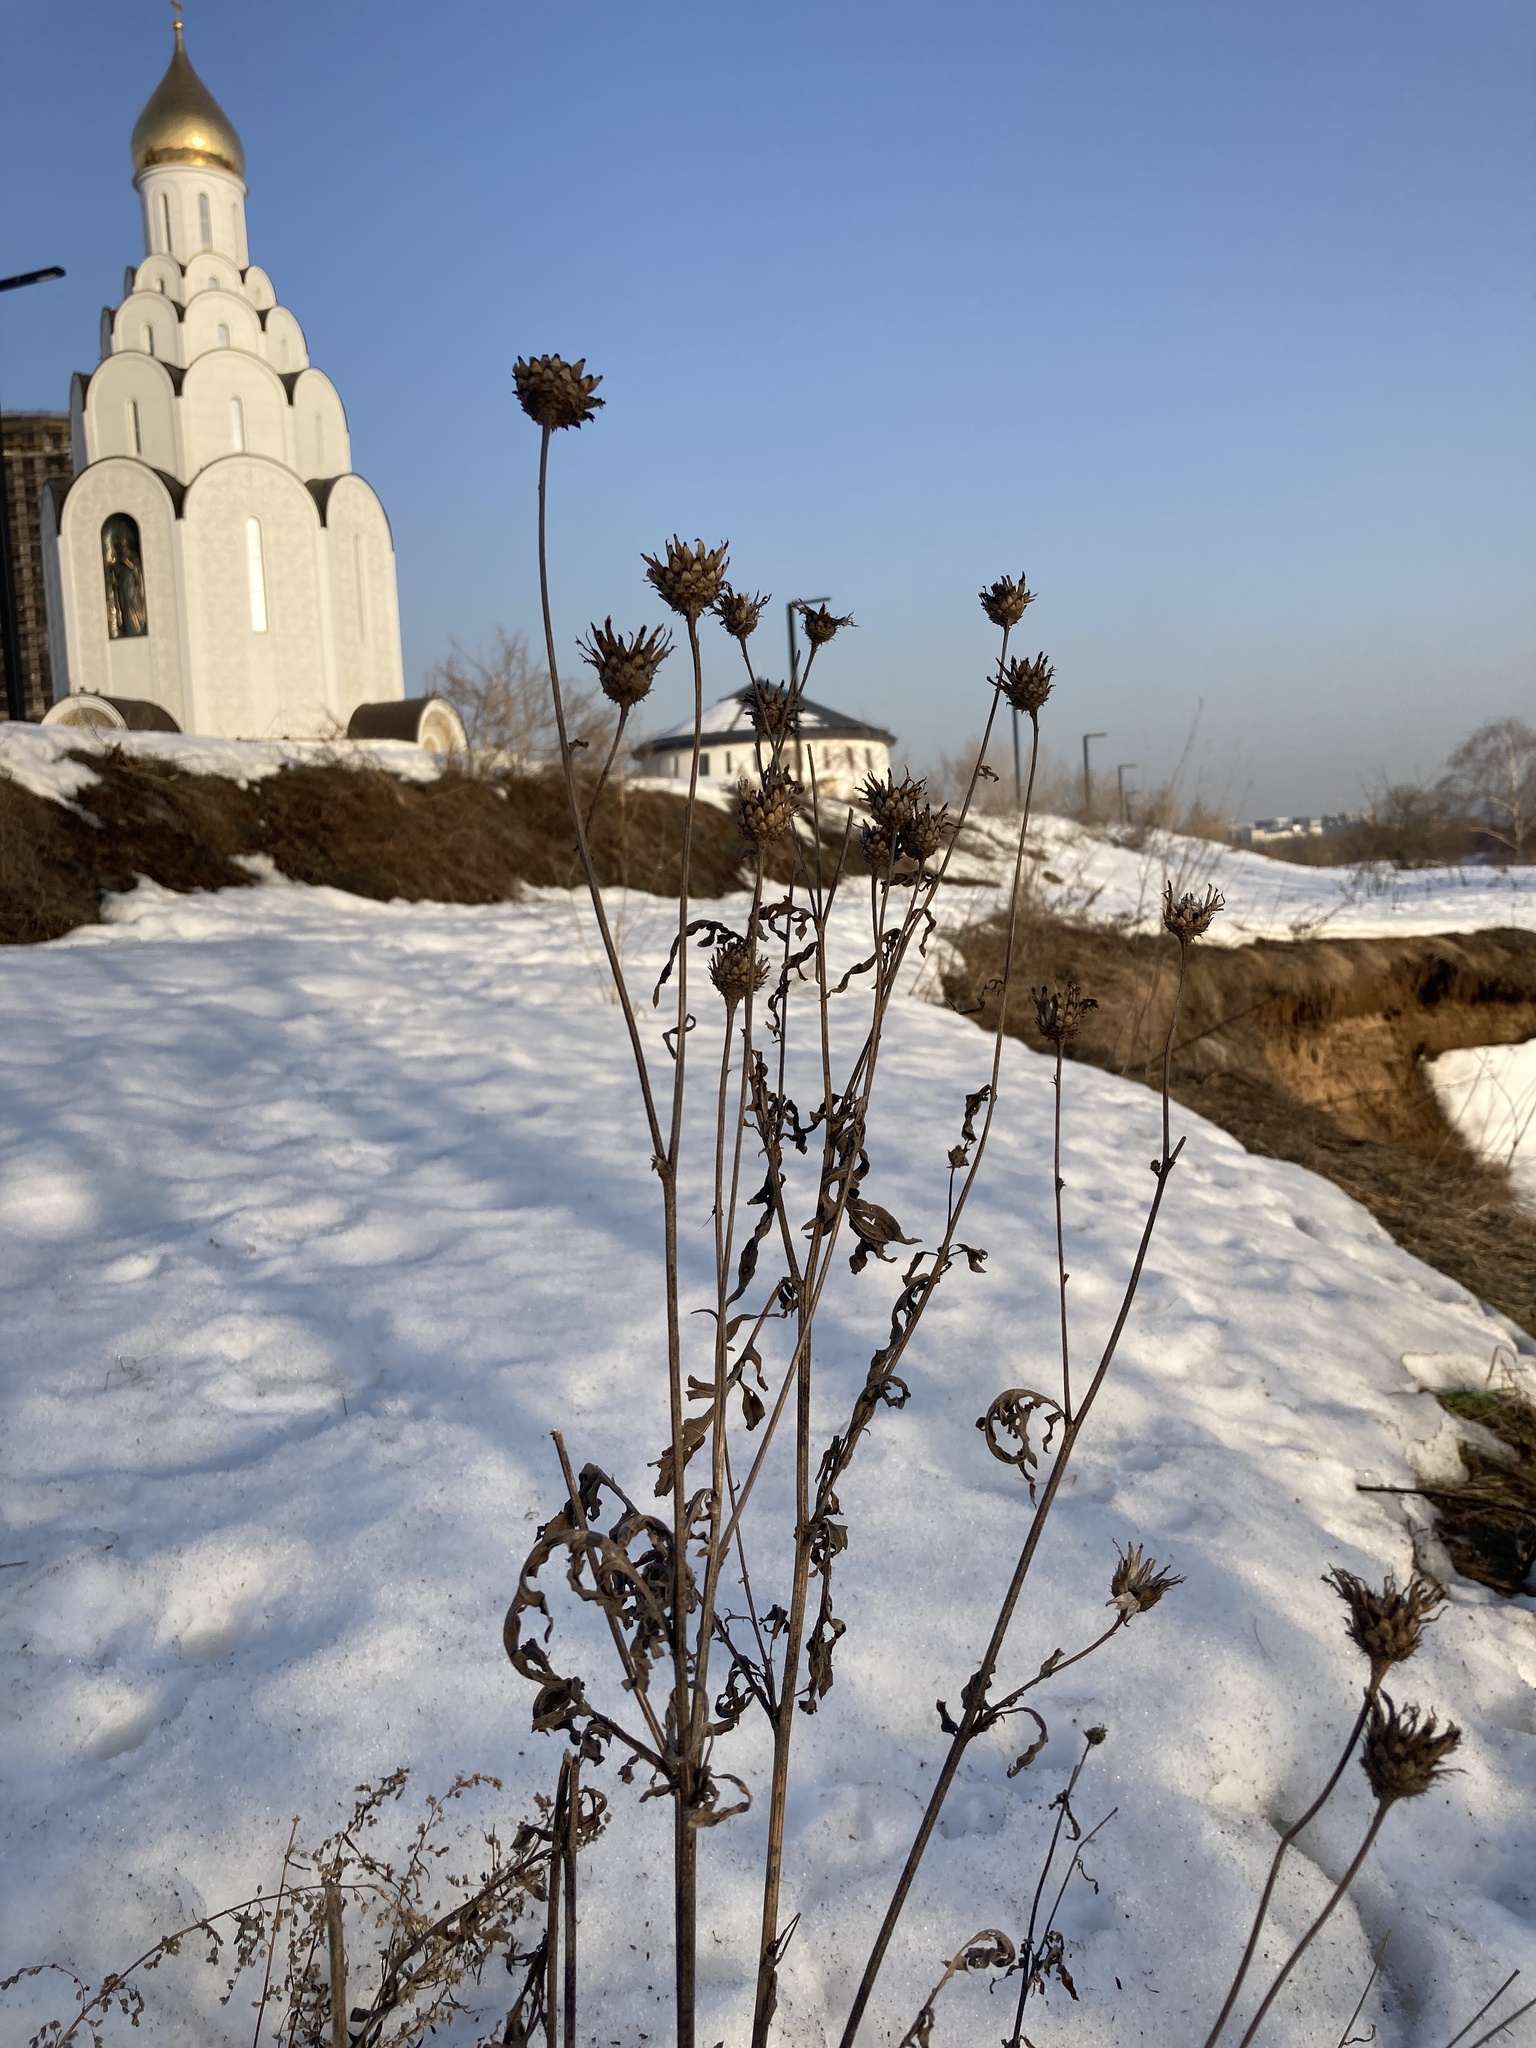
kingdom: Plantae
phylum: Tracheophyta
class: Magnoliopsida
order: Asterales
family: Asteraceae
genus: Centaurea
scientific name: Centaurea scabiosa
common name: Greater knapweed
